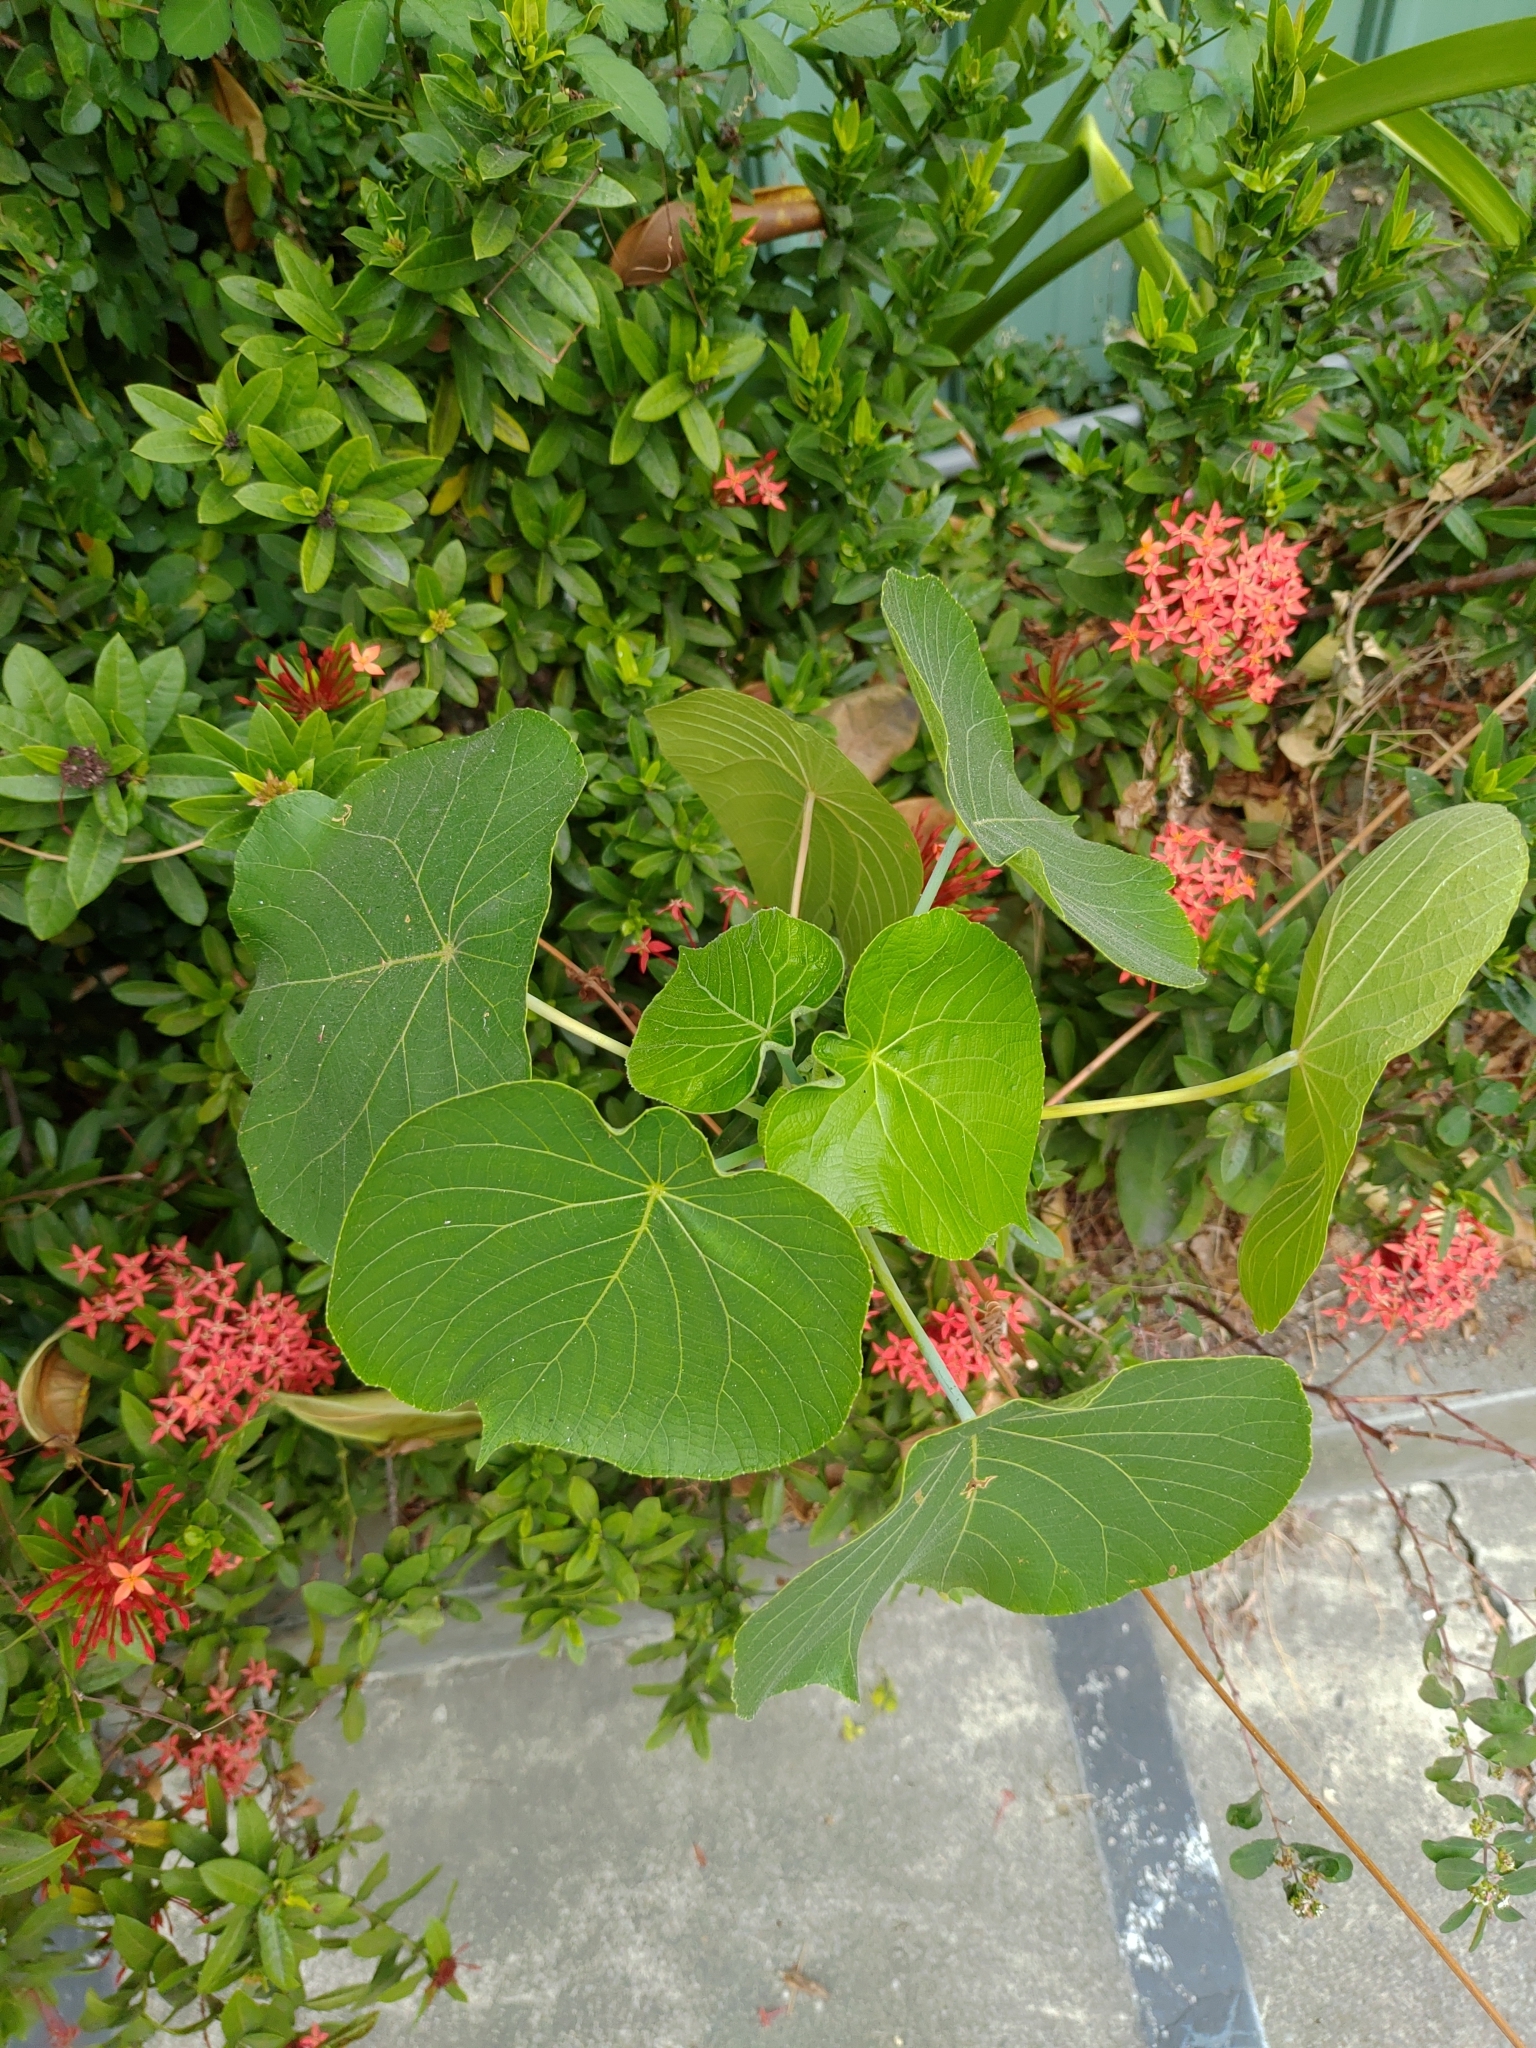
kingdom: Plantae
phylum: Tracheophyta
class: Magnoliopsida
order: Malpighiales
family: Euphorbiaceae
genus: Macaranga
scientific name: Macaranga tanarius
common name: Parasol leaf tree
